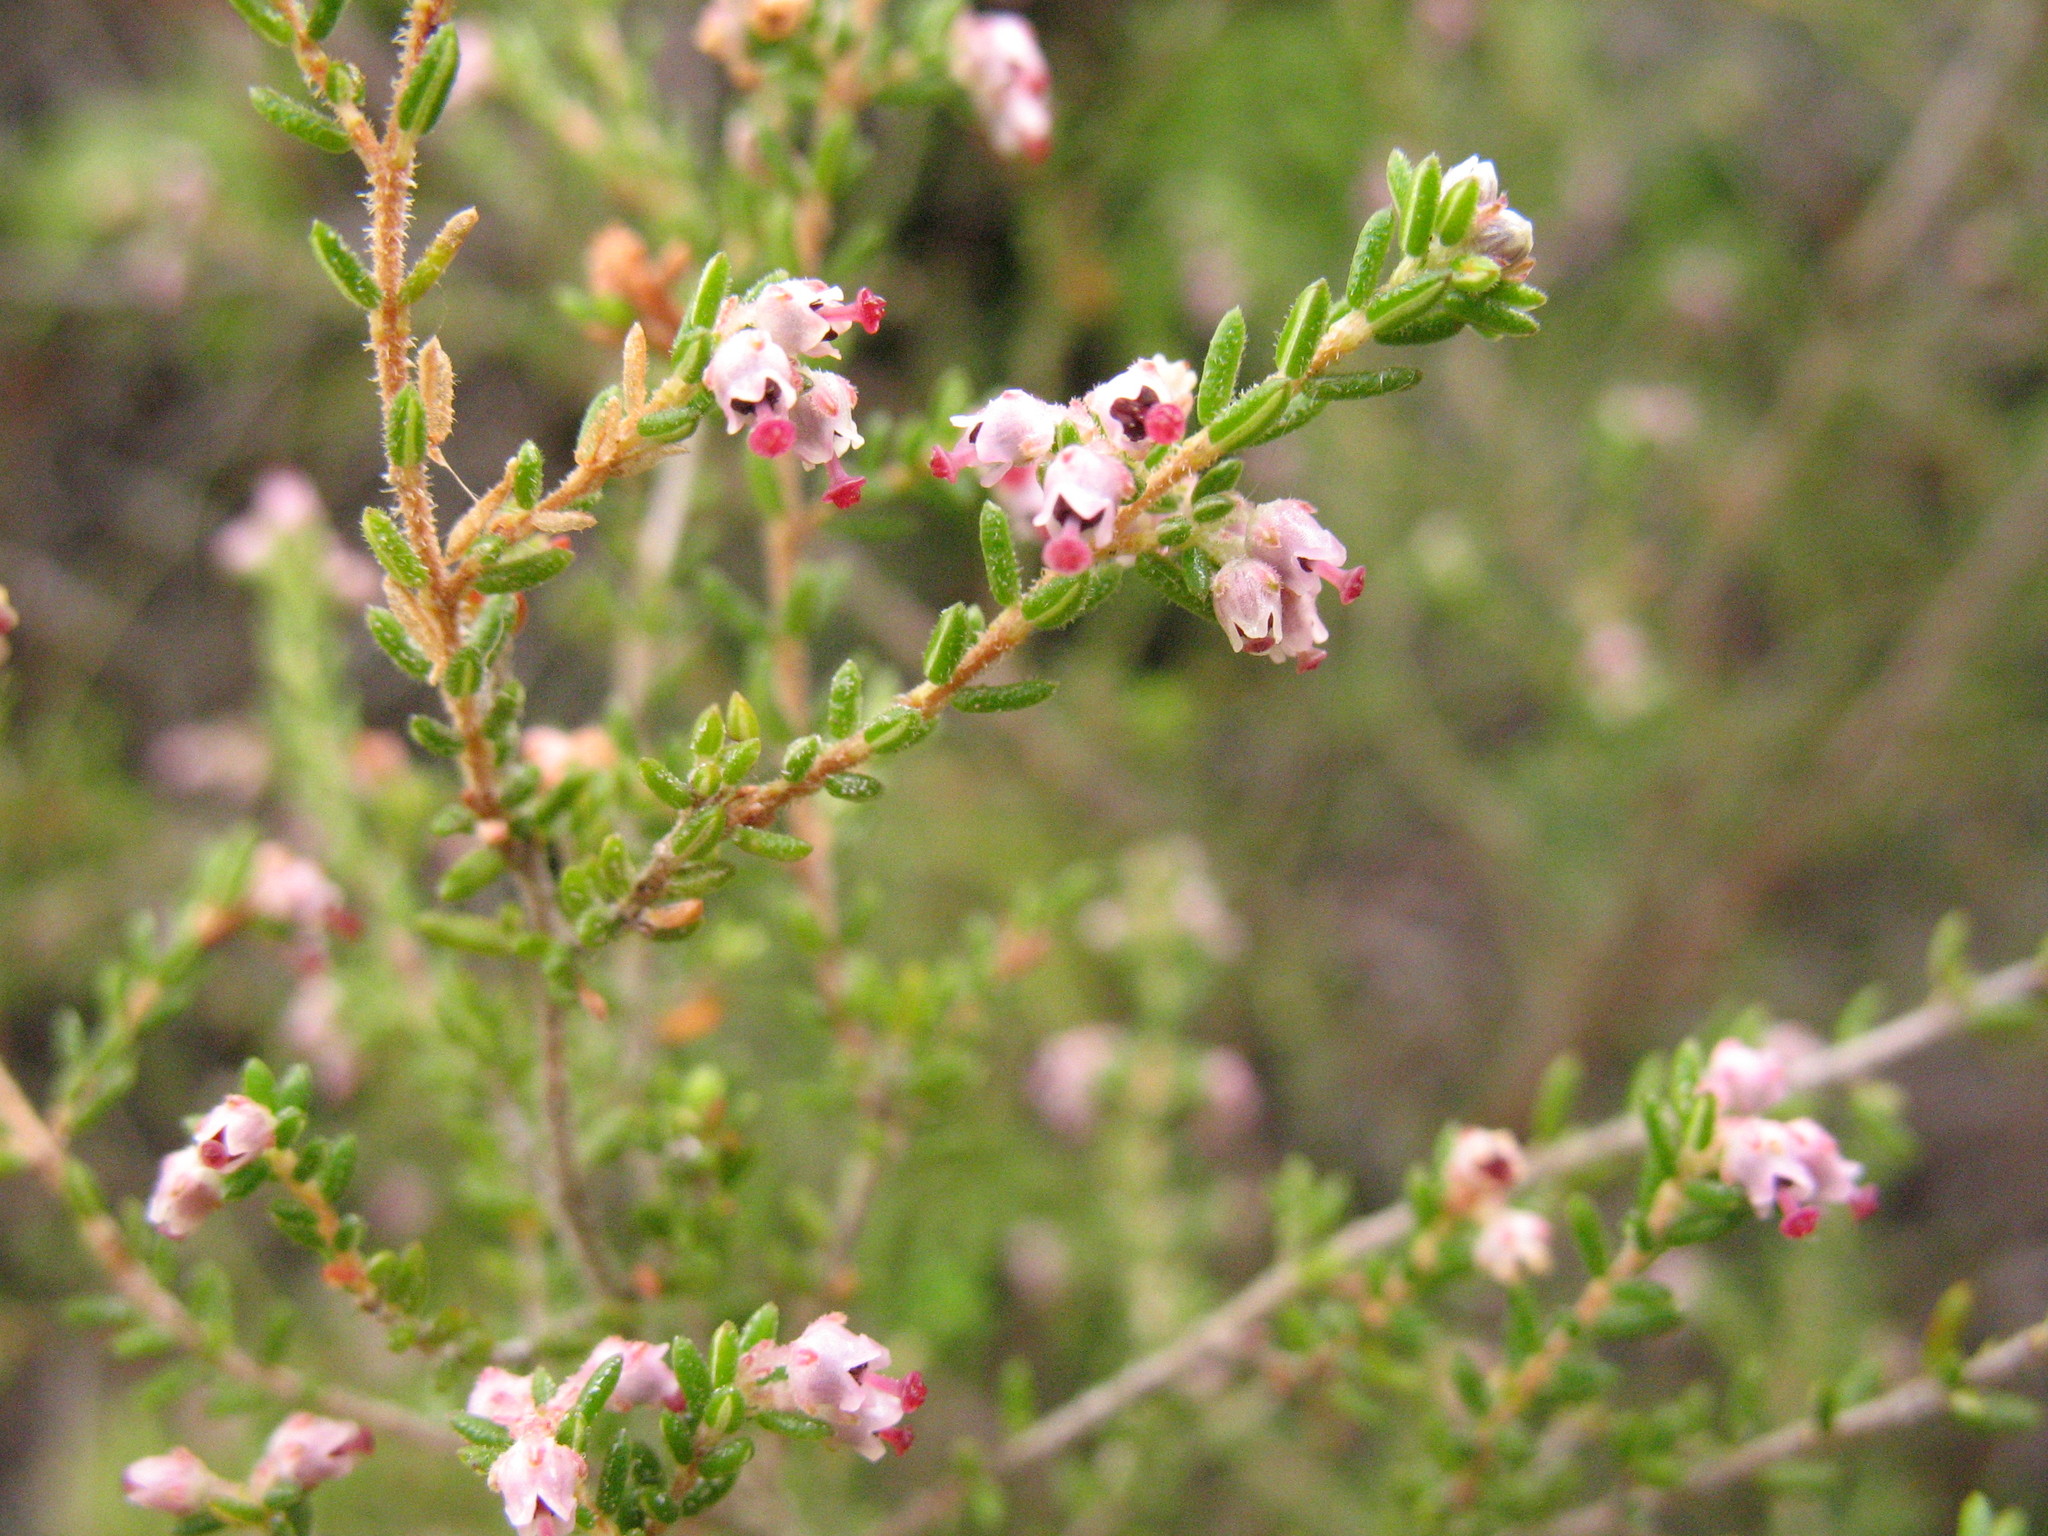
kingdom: Plantae
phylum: Tracheophyta
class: Magnoliopsida
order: Ericales
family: Ericaceae
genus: Erica
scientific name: Erica hispidula
